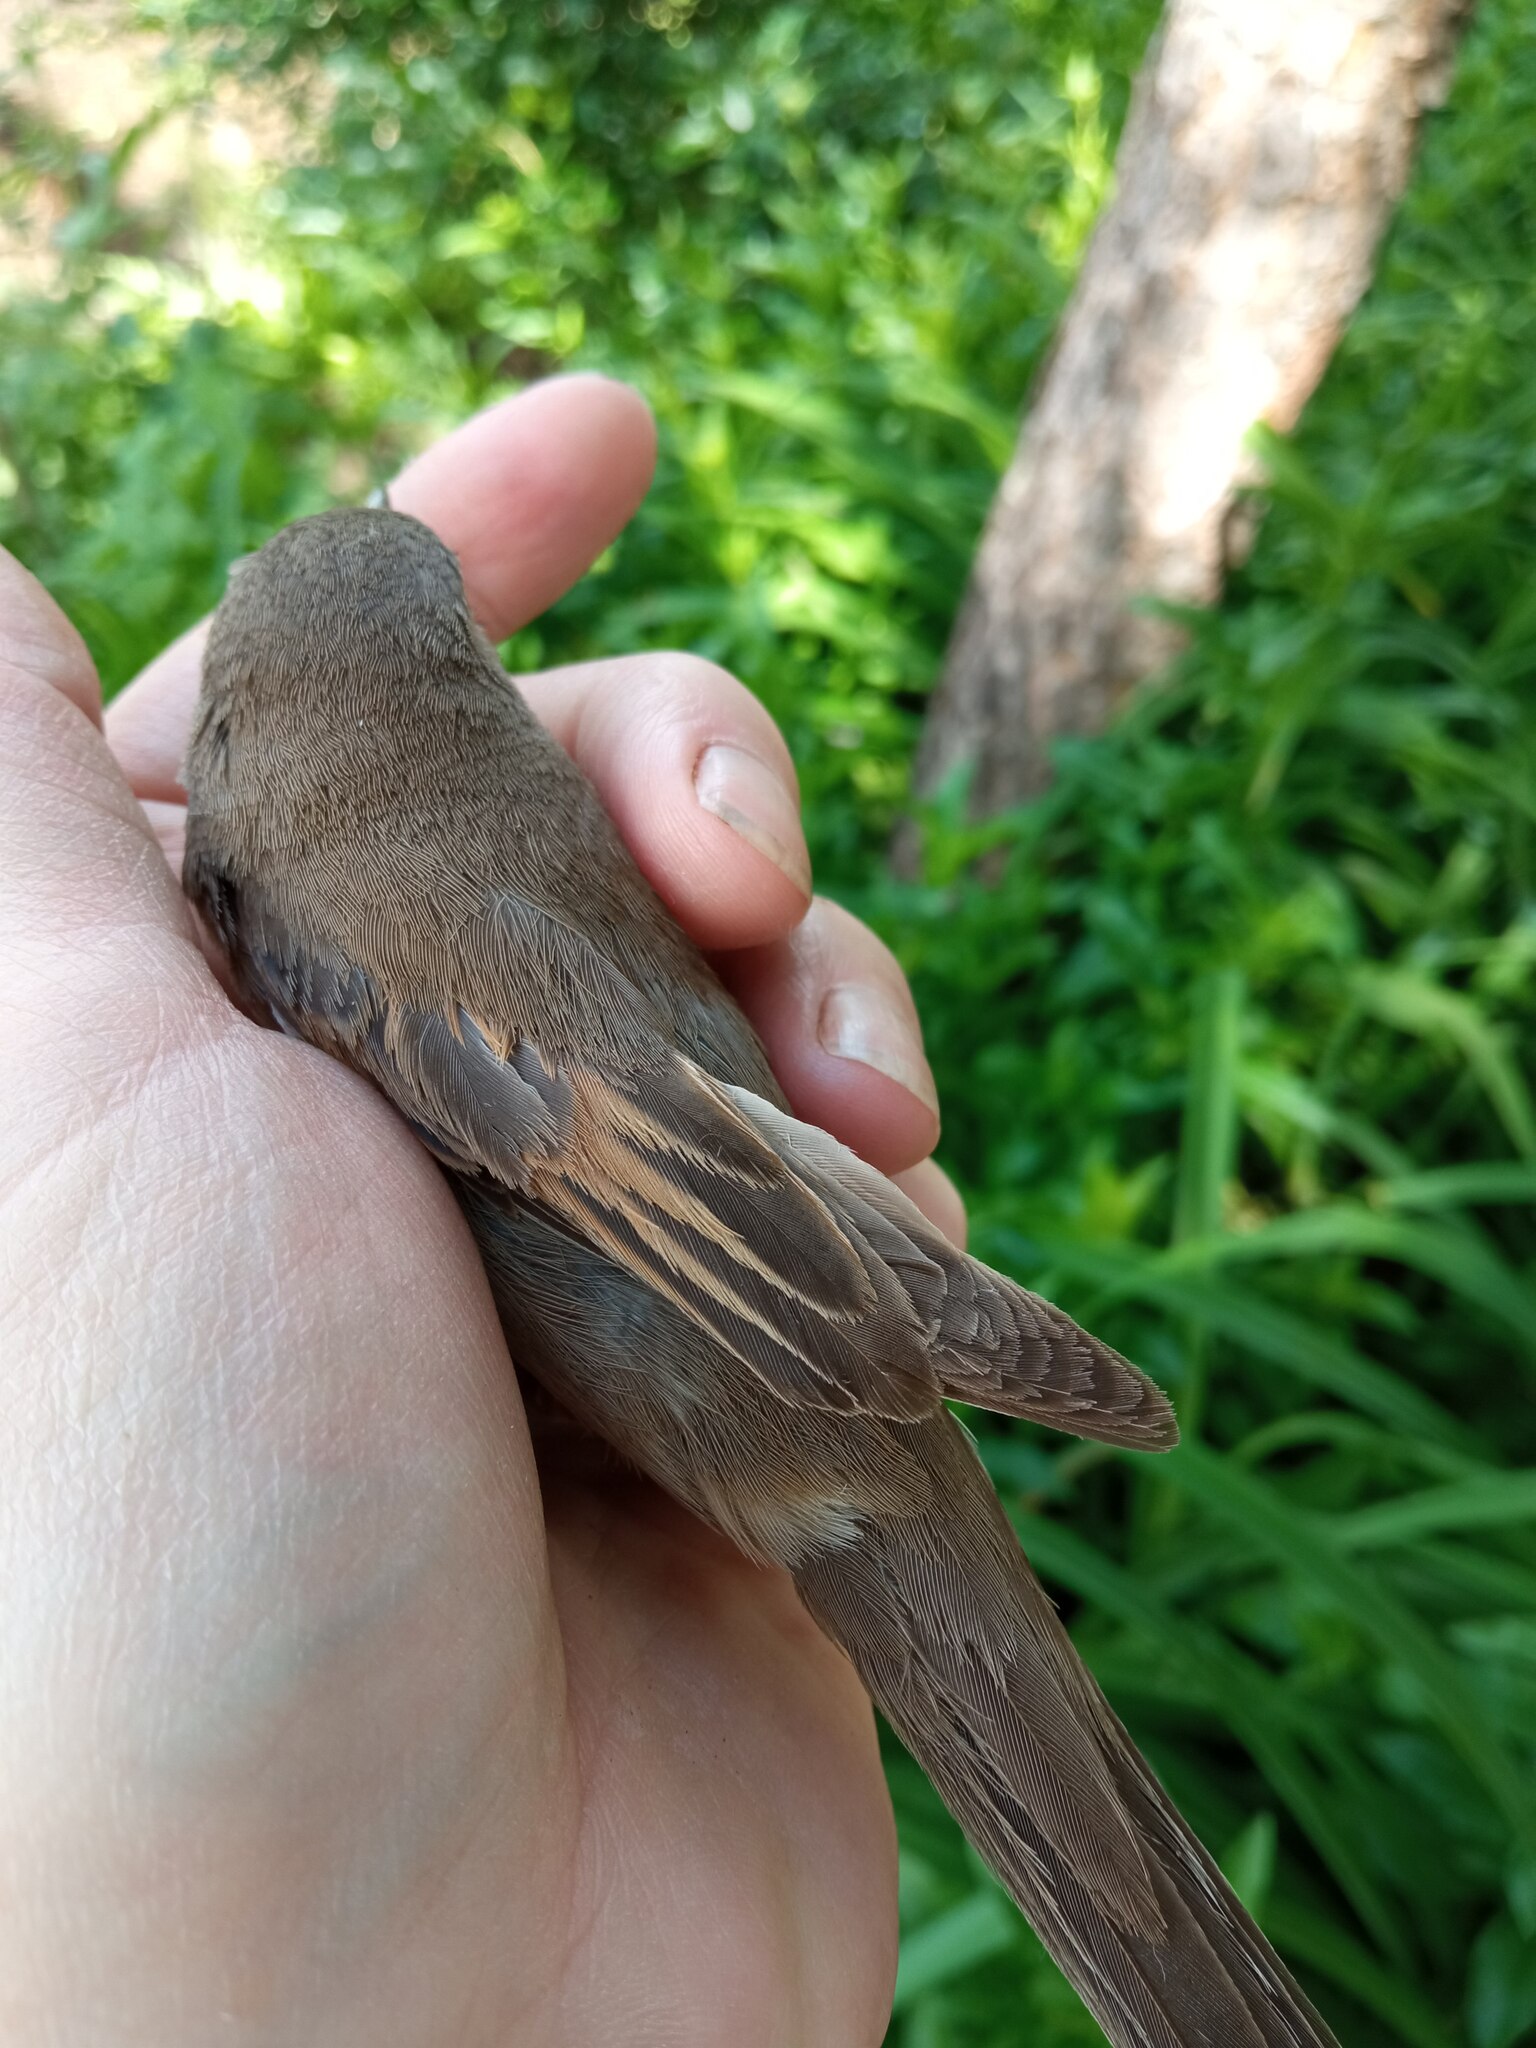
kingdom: Animalia
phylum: Chordata
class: Aves
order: Passeriformes
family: Sylviidae
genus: Sylvia
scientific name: Sylvia communis
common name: Common whitethroat
